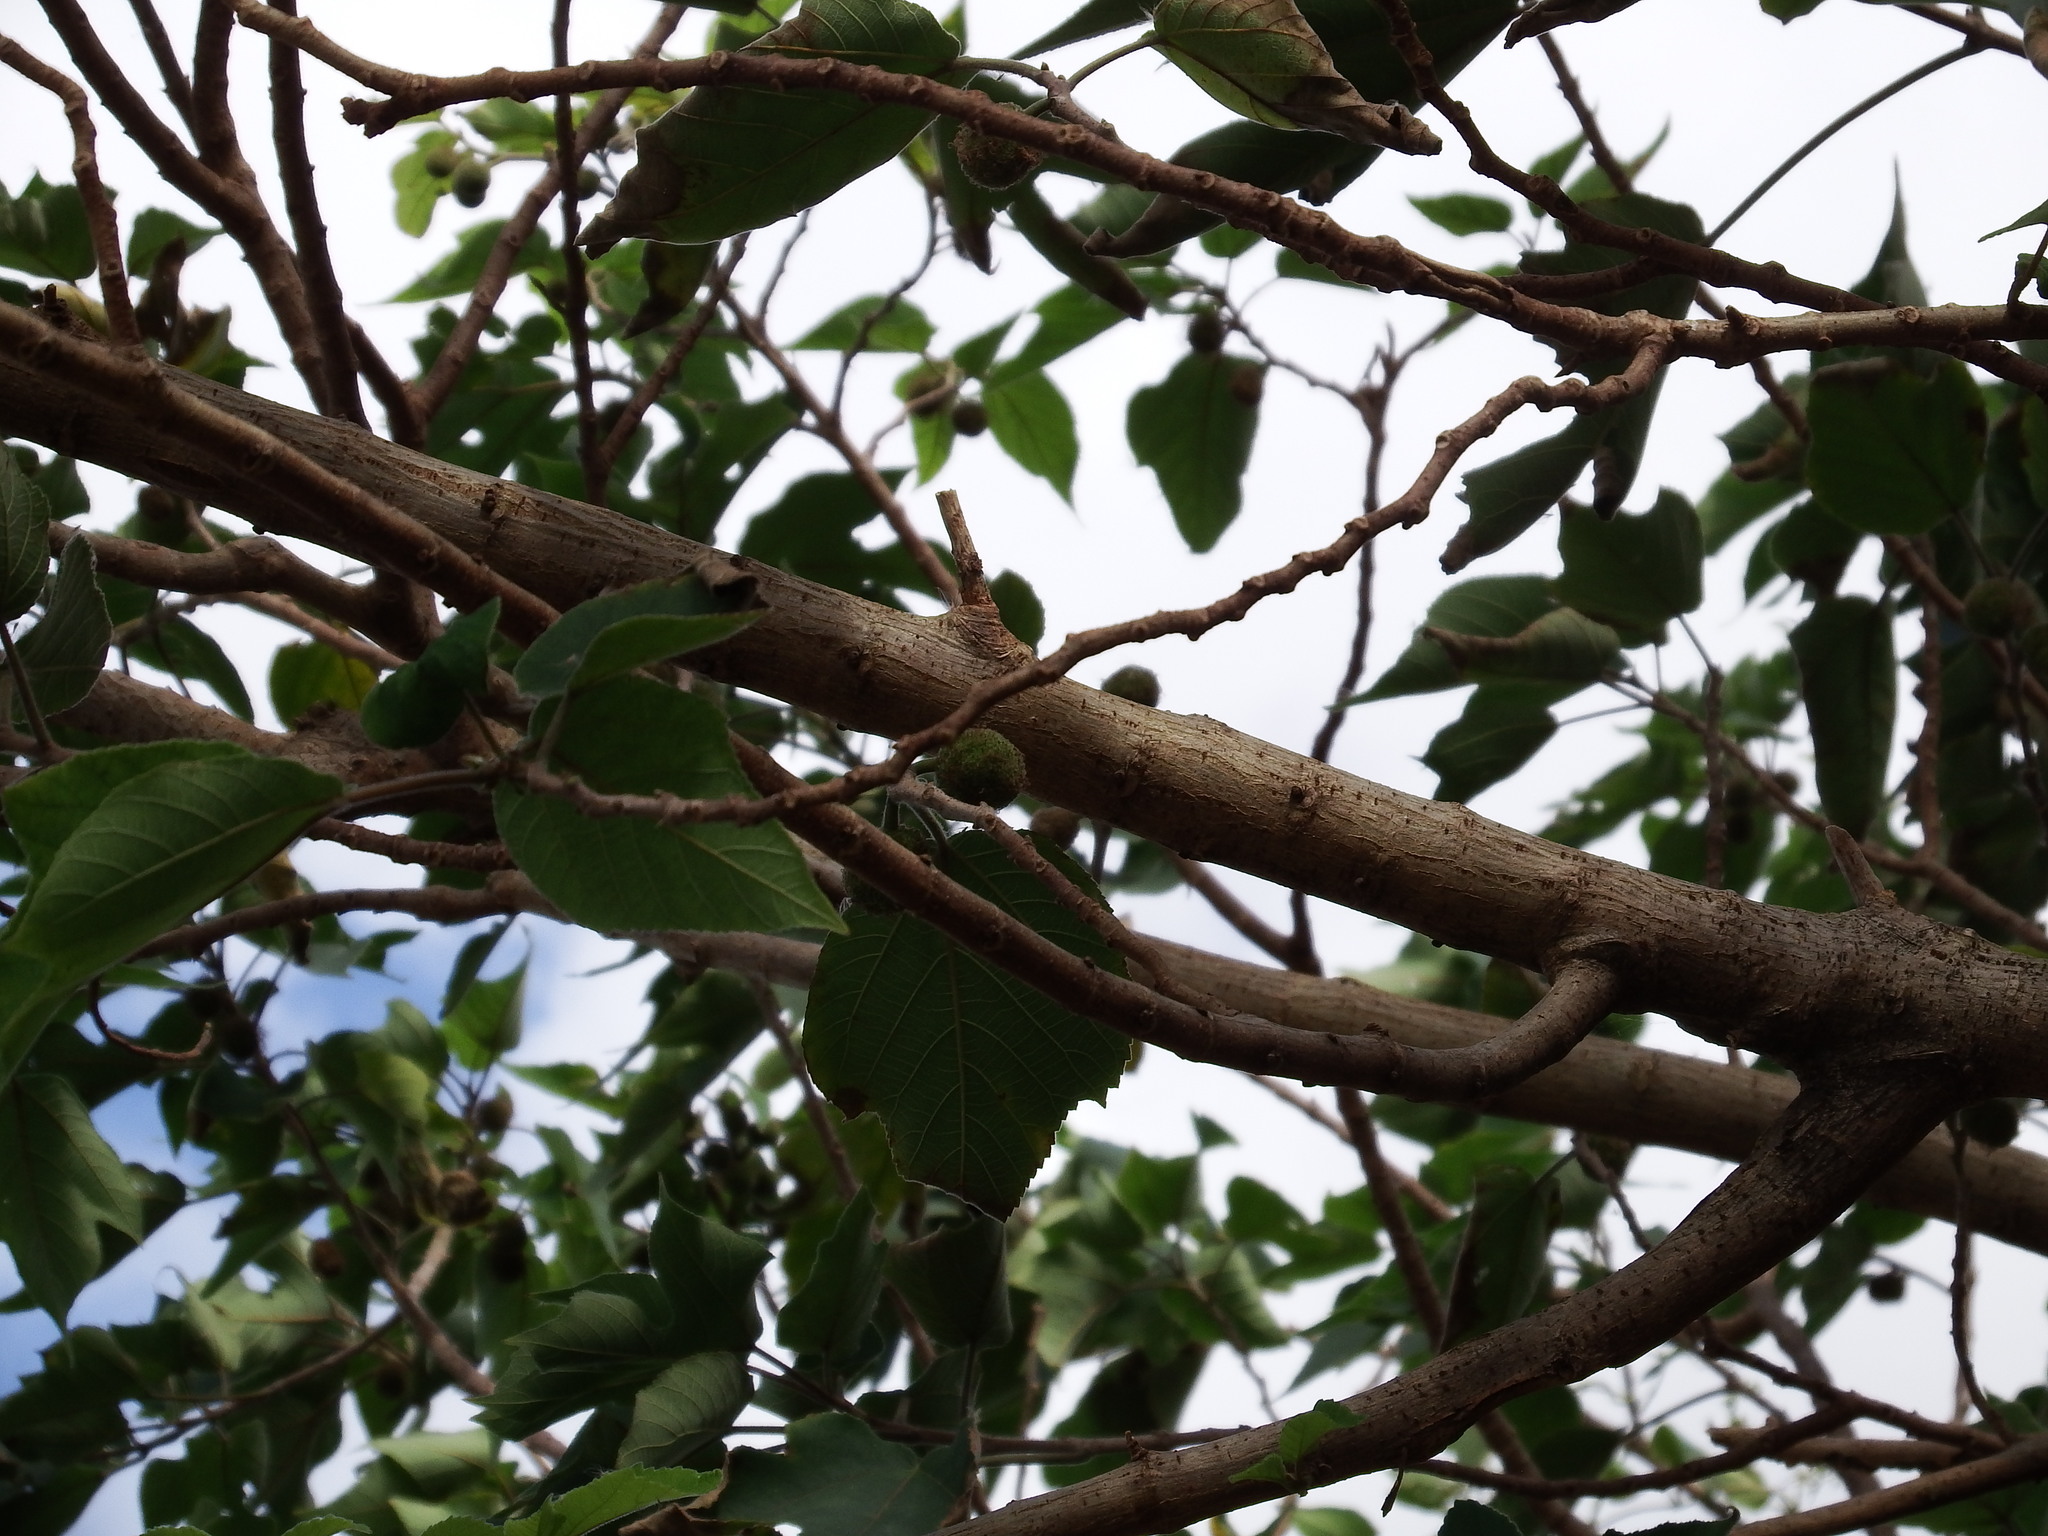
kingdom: Plantae
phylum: Tracheophyta
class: Magnoliopsida
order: Rosales
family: Moraceae
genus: Broussonetia
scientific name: Broussonetia papyrifera
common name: Paper mulberry
